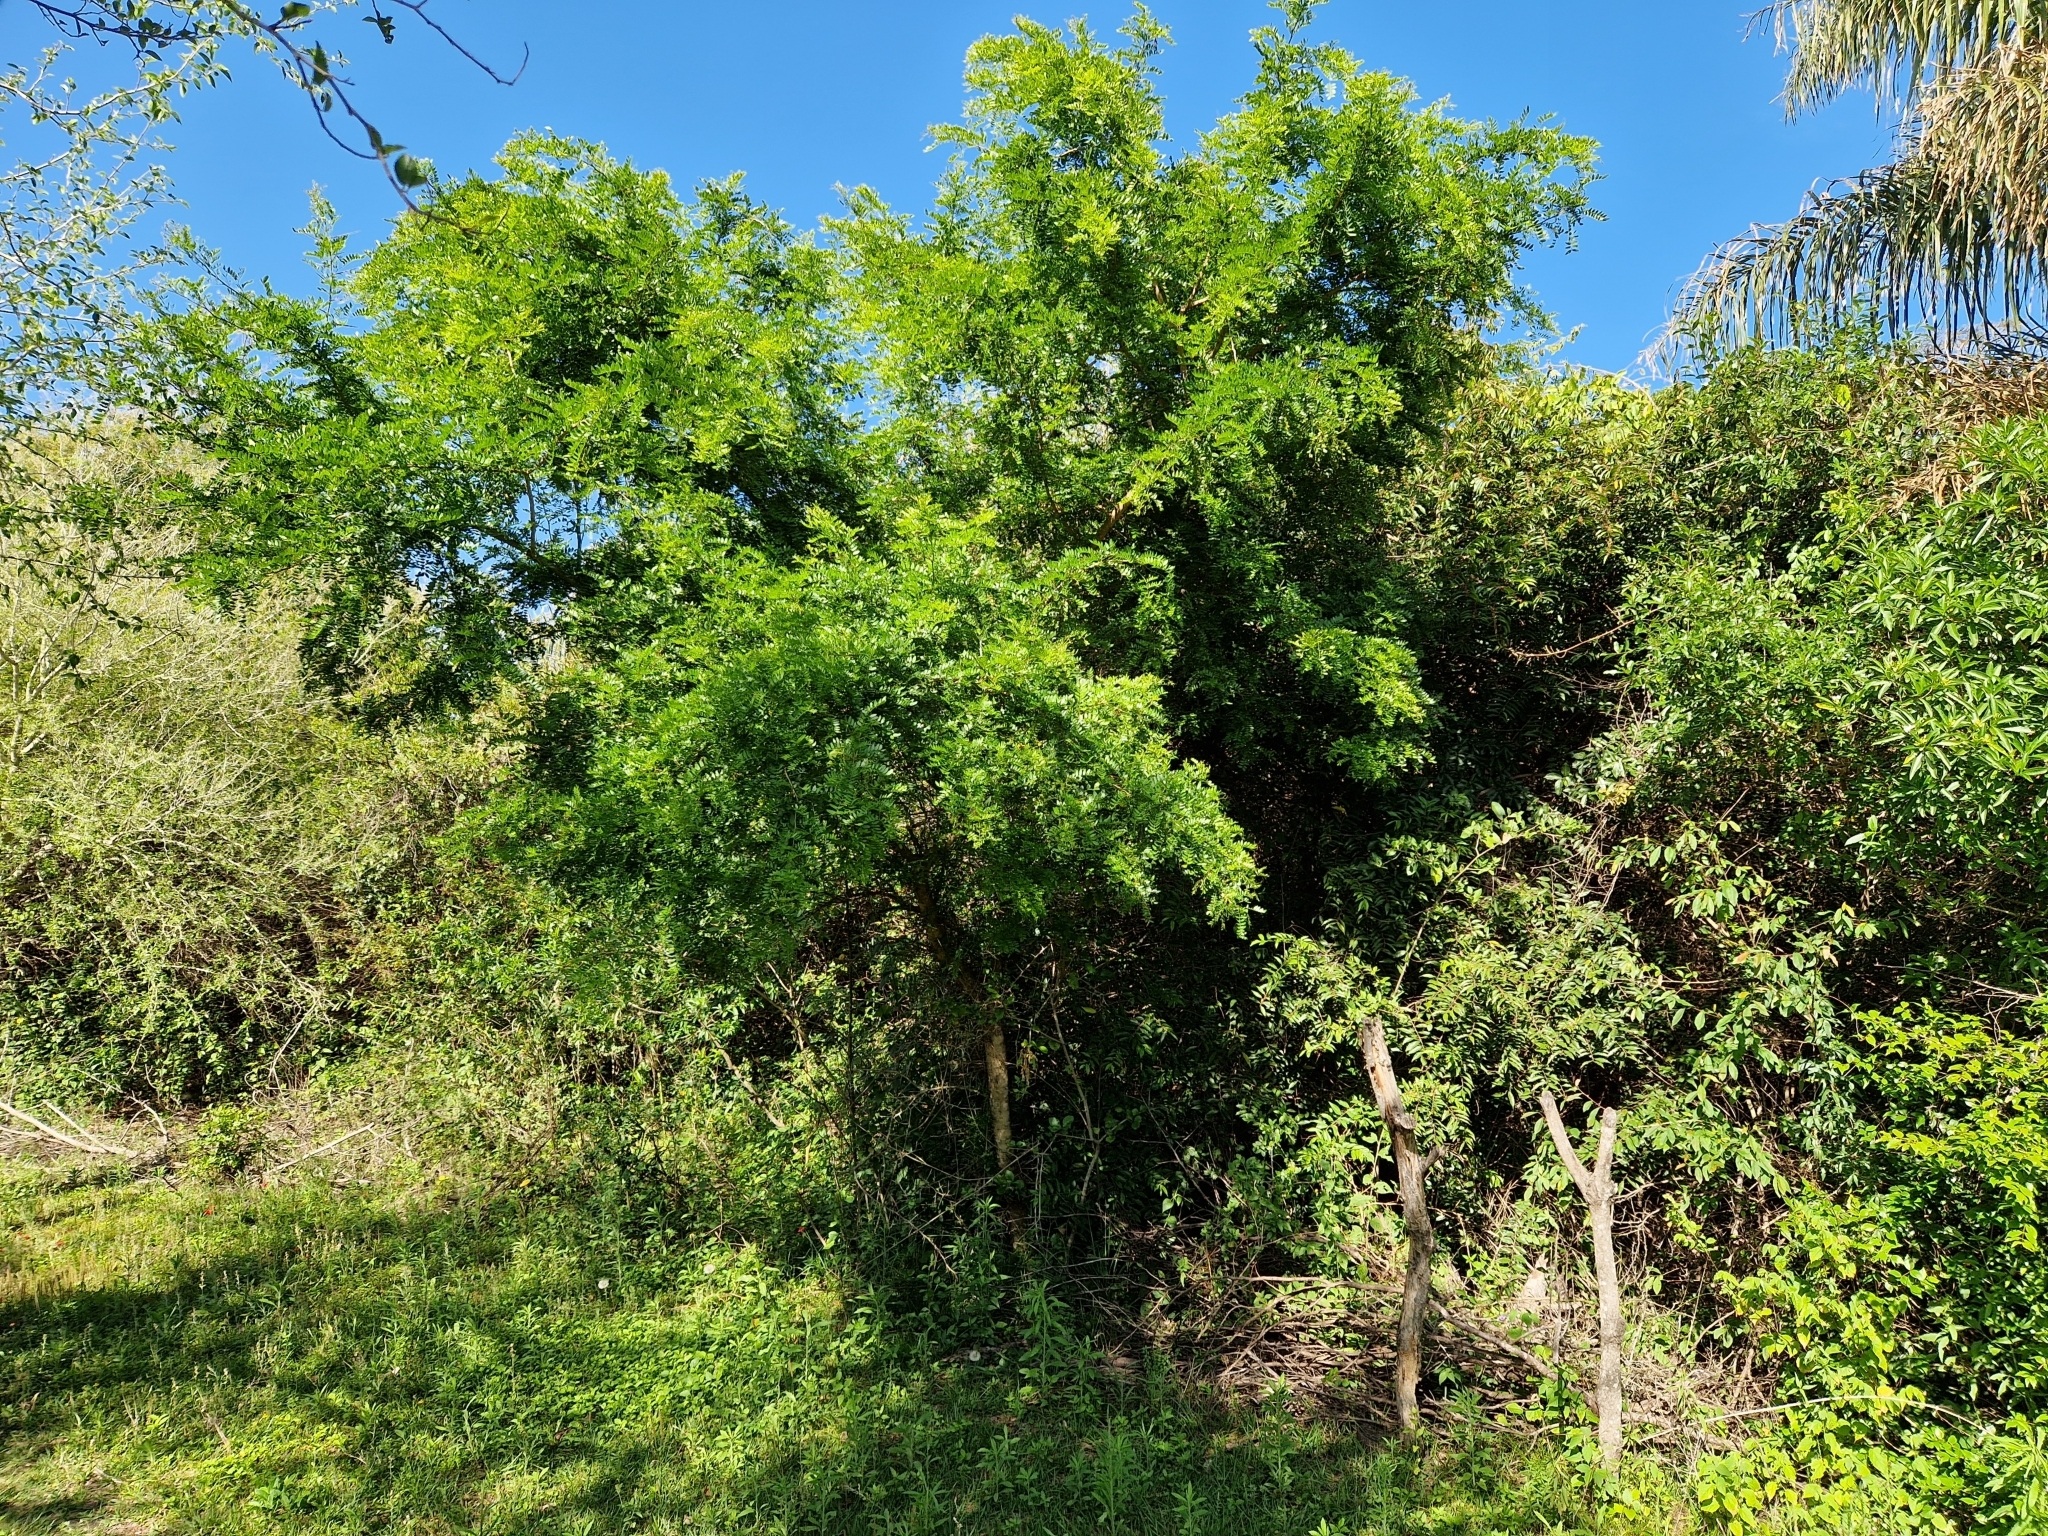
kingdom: Plantae
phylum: Tracheophyta
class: Magnoliopsida
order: Fabales
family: Fabaceae
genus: Gleditsia
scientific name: Gleditsia amorphoides
